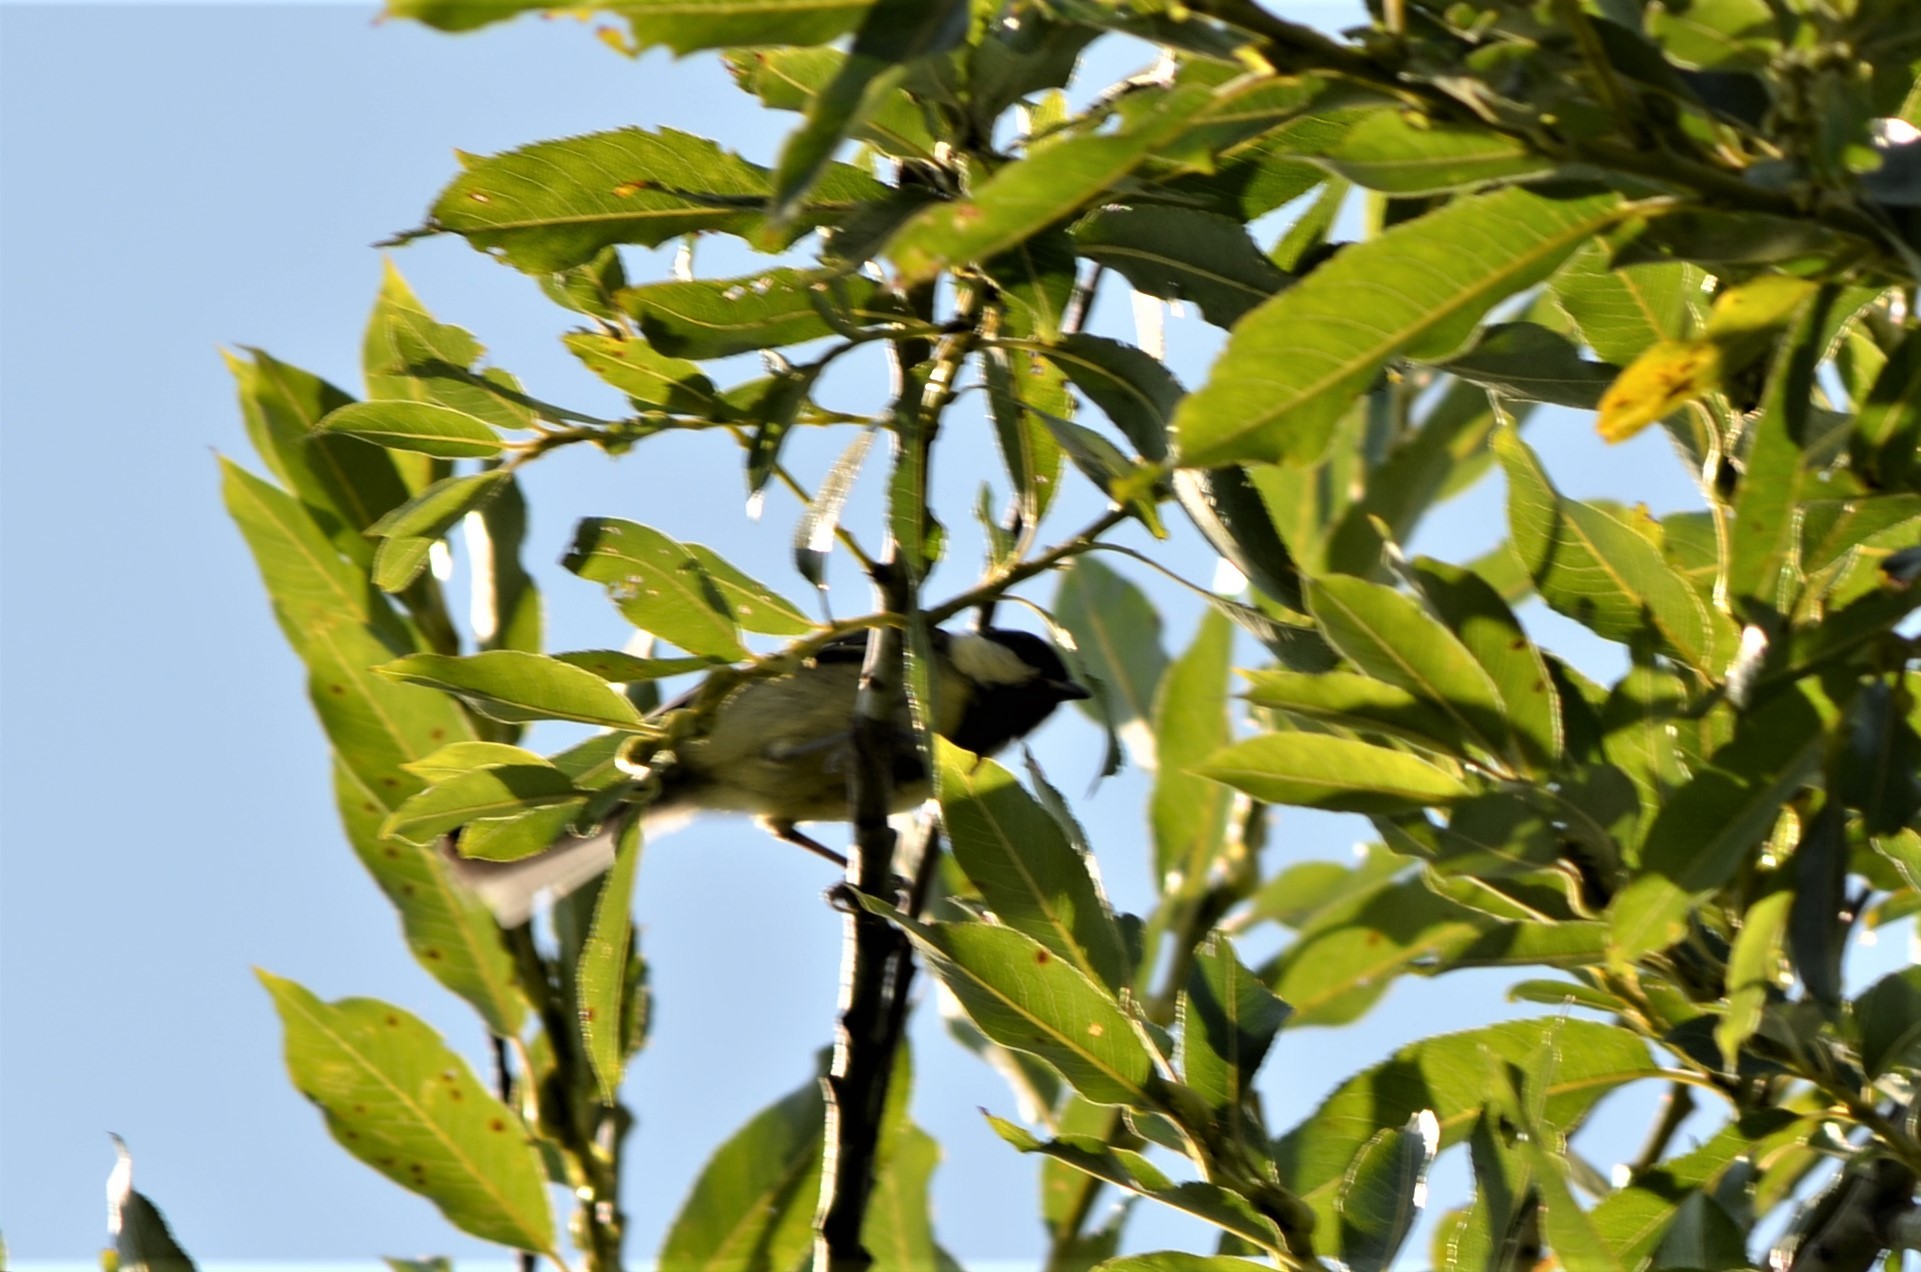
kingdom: Animalia
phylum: Chordata
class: Aves
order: Passeriformes
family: Paridae
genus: Parus
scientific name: Parus major
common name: Great tit
